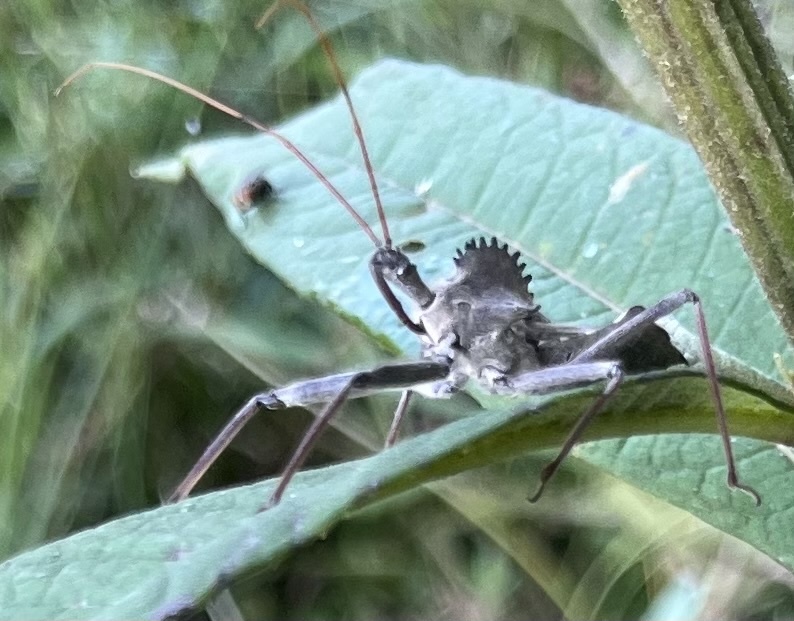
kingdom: Animalia
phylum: Arthropoda
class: Insecta
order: Hemiptera
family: Reduviidae
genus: Arilus
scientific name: Arilus cristatus
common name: North american wheel bug
